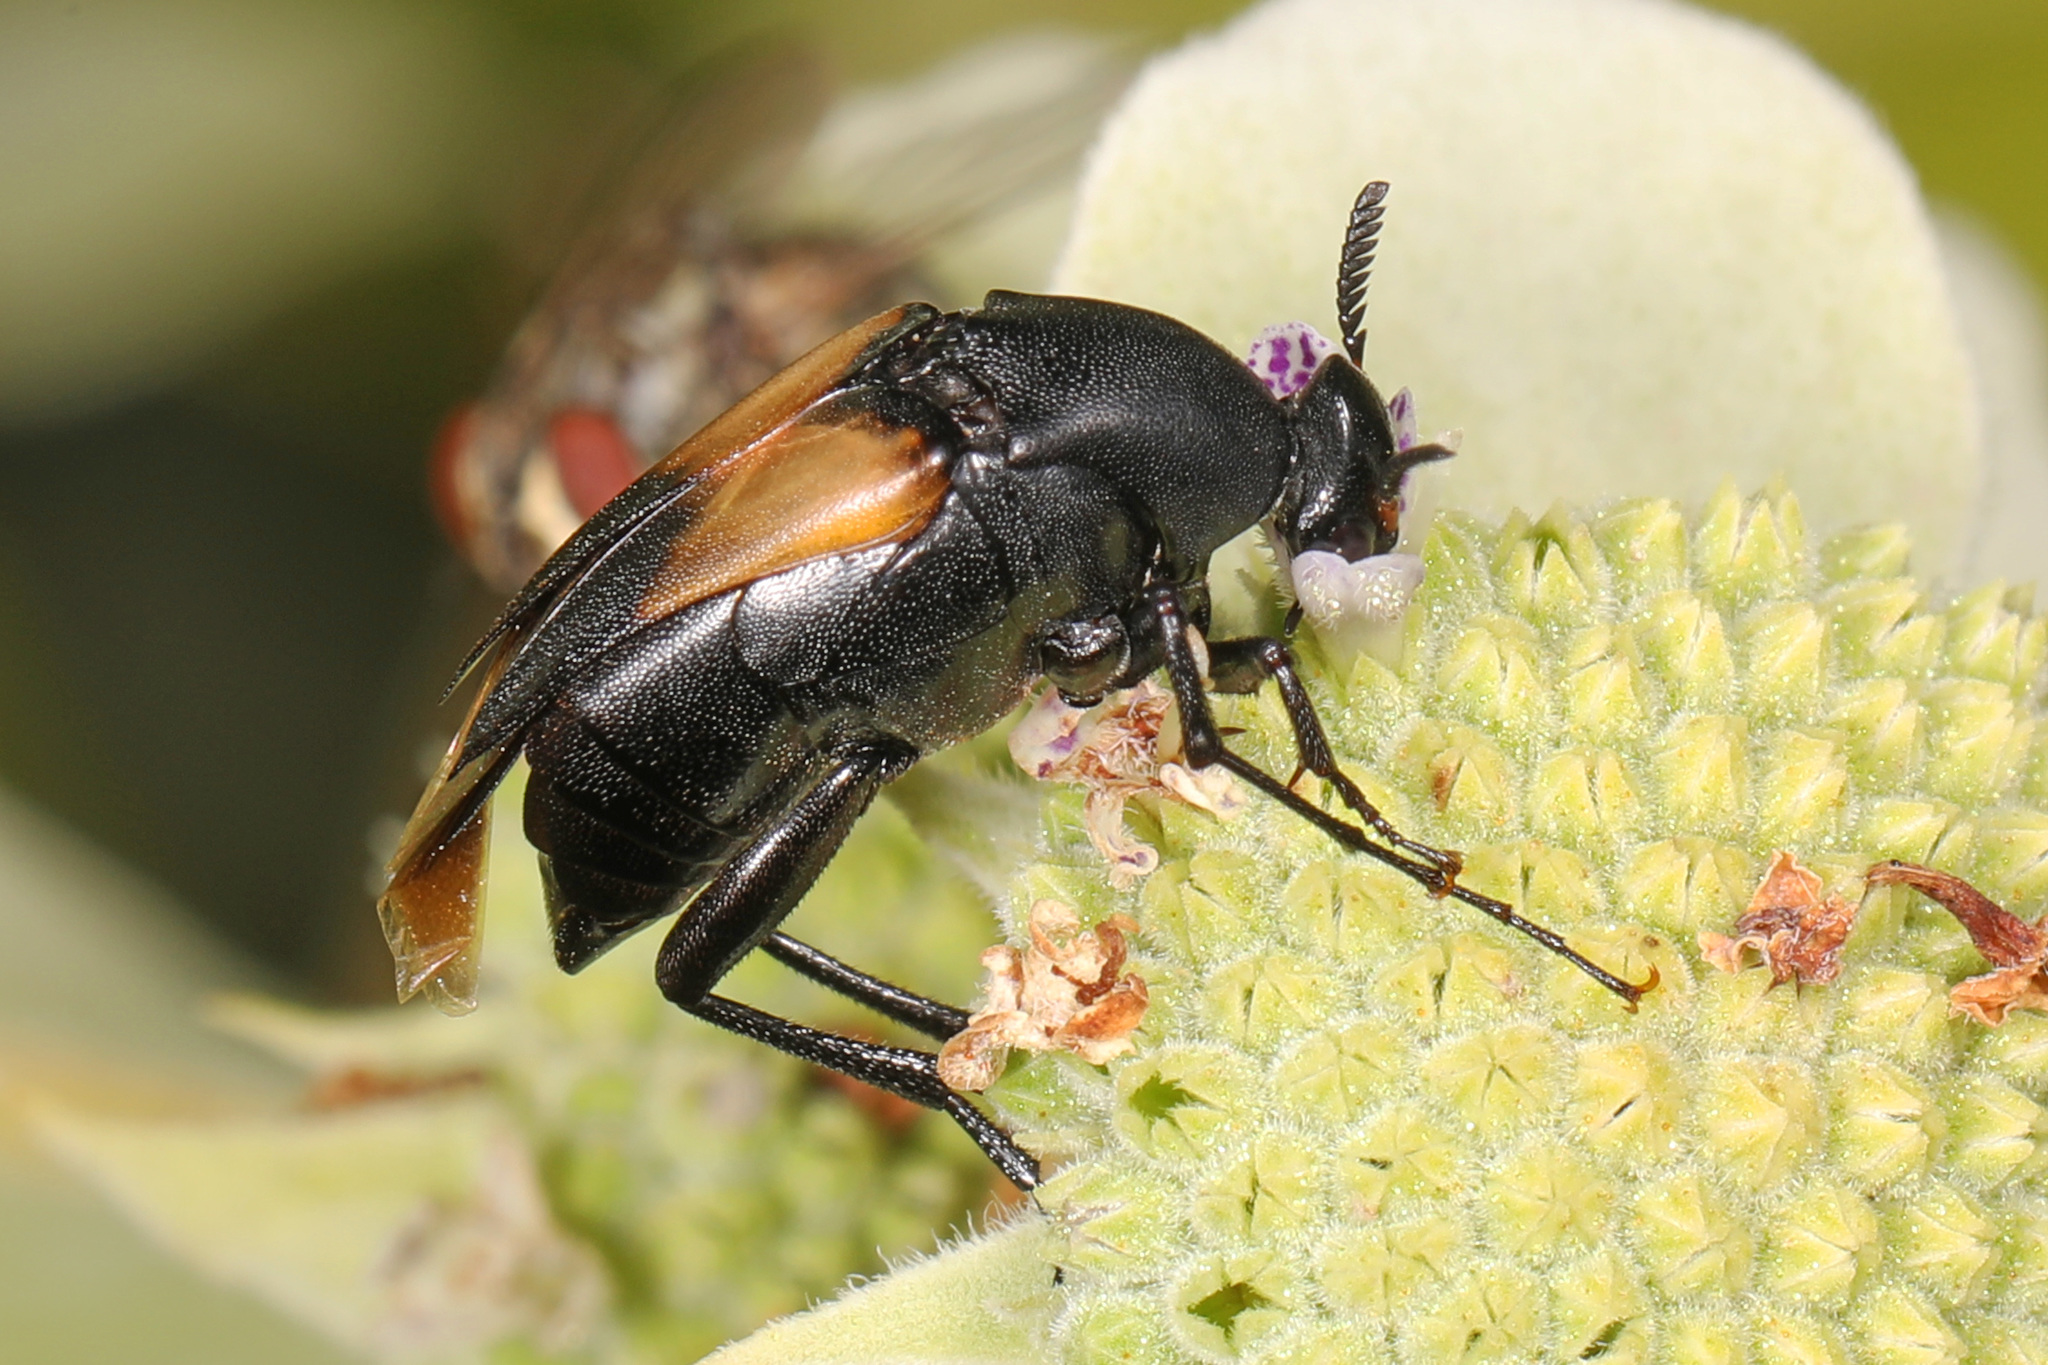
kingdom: Animalia
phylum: Arthropoda
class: Insecta
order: Coleoptera
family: Ripiphoridae
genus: Macrosiagon
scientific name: Macrosiagon dimidiata
